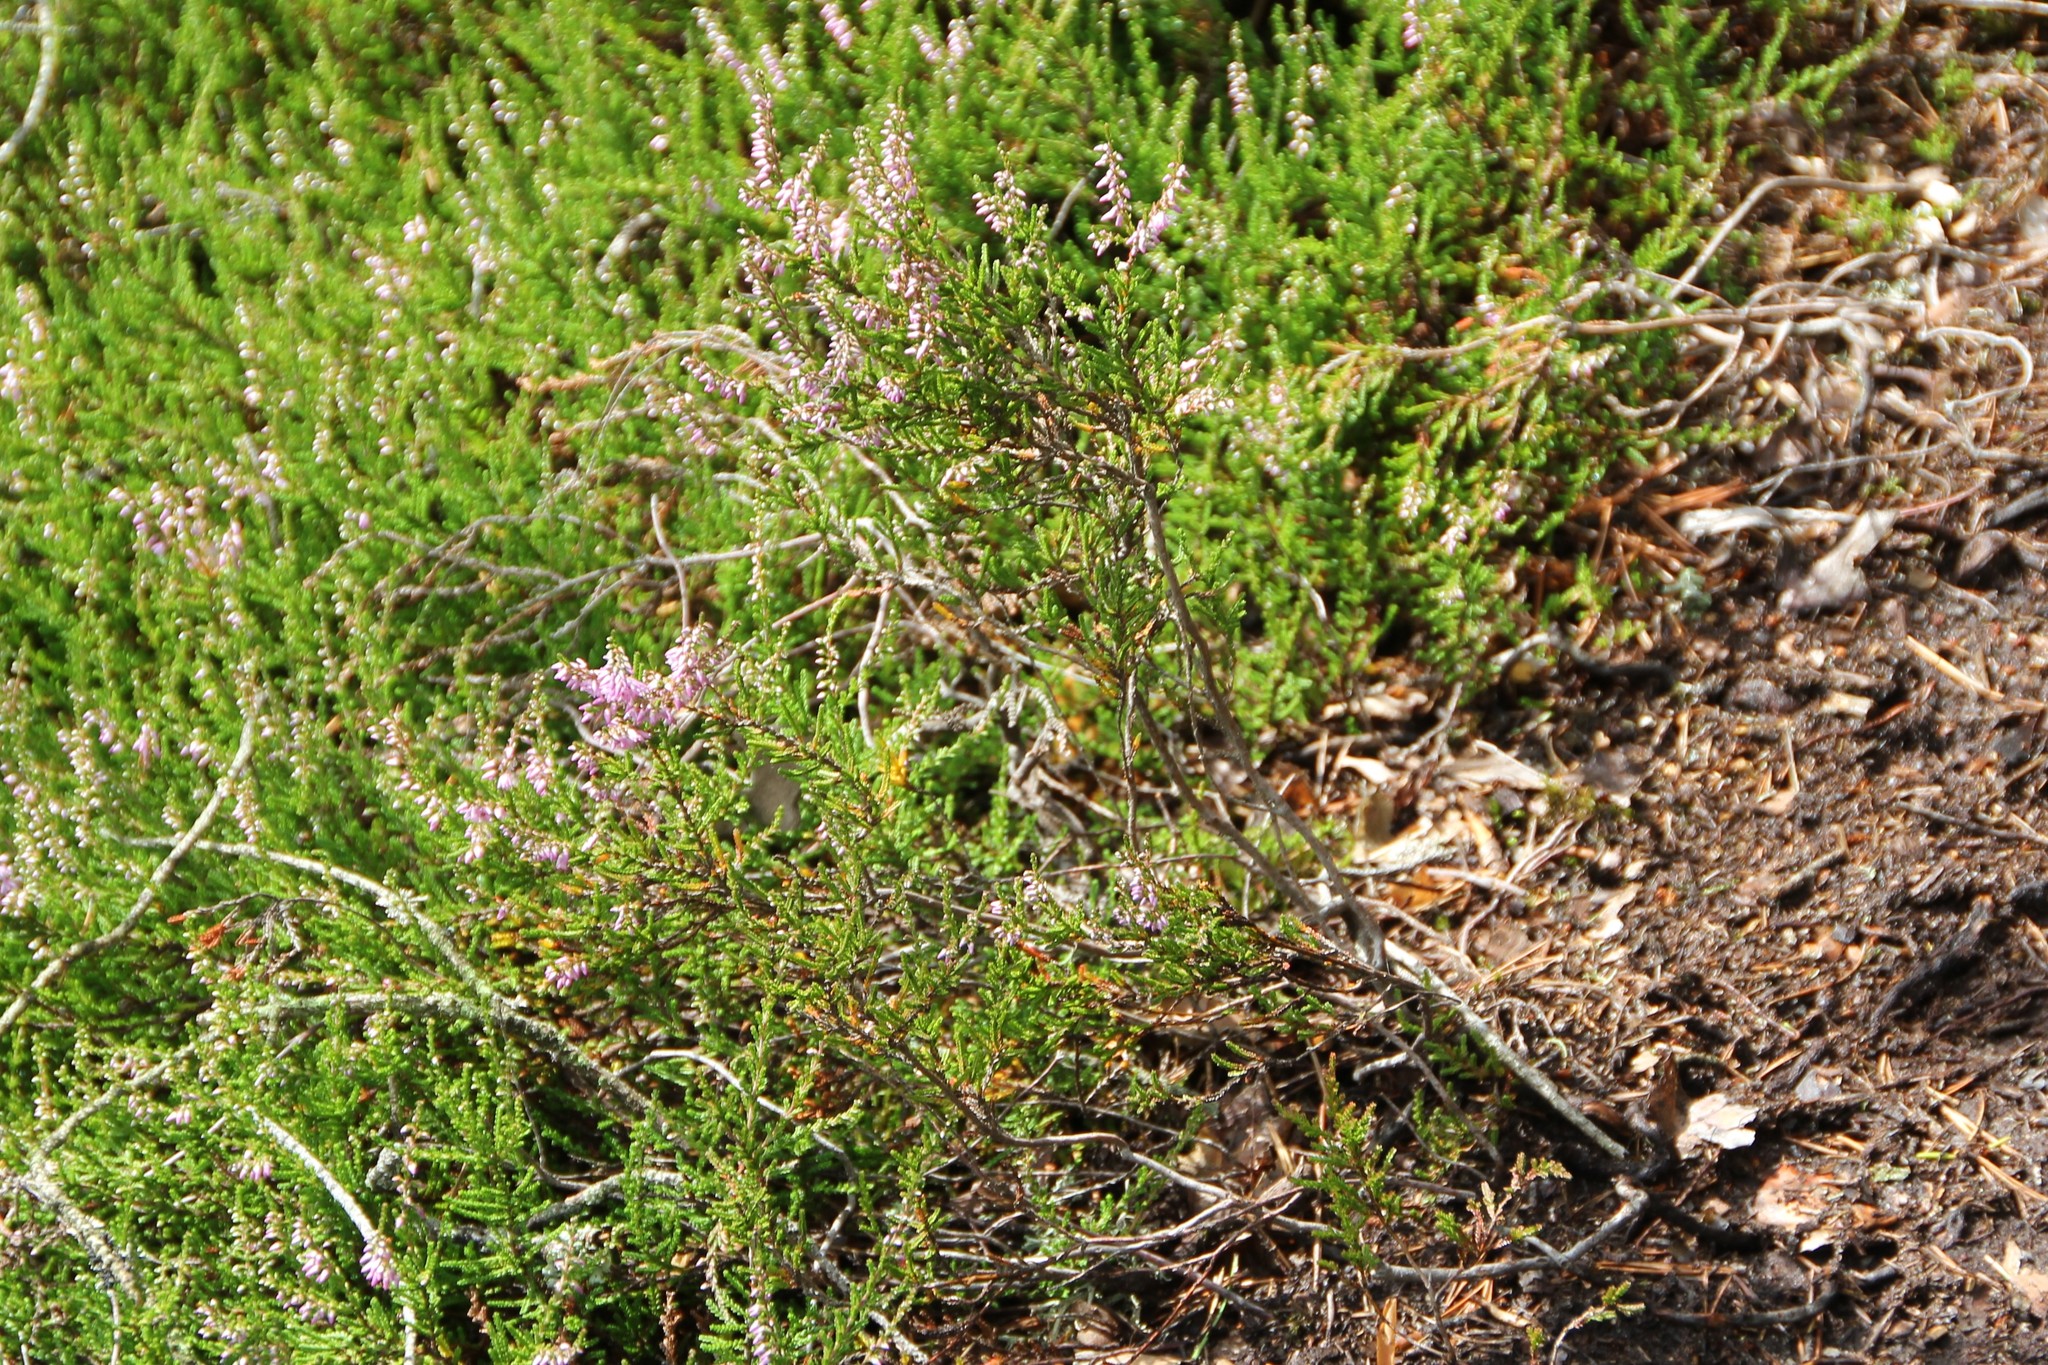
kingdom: Plantae
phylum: Tracheophyta
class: Magnoliopsida
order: Ericales
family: Ericaceae
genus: Calluna
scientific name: Calluna vulgaris
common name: Heather
